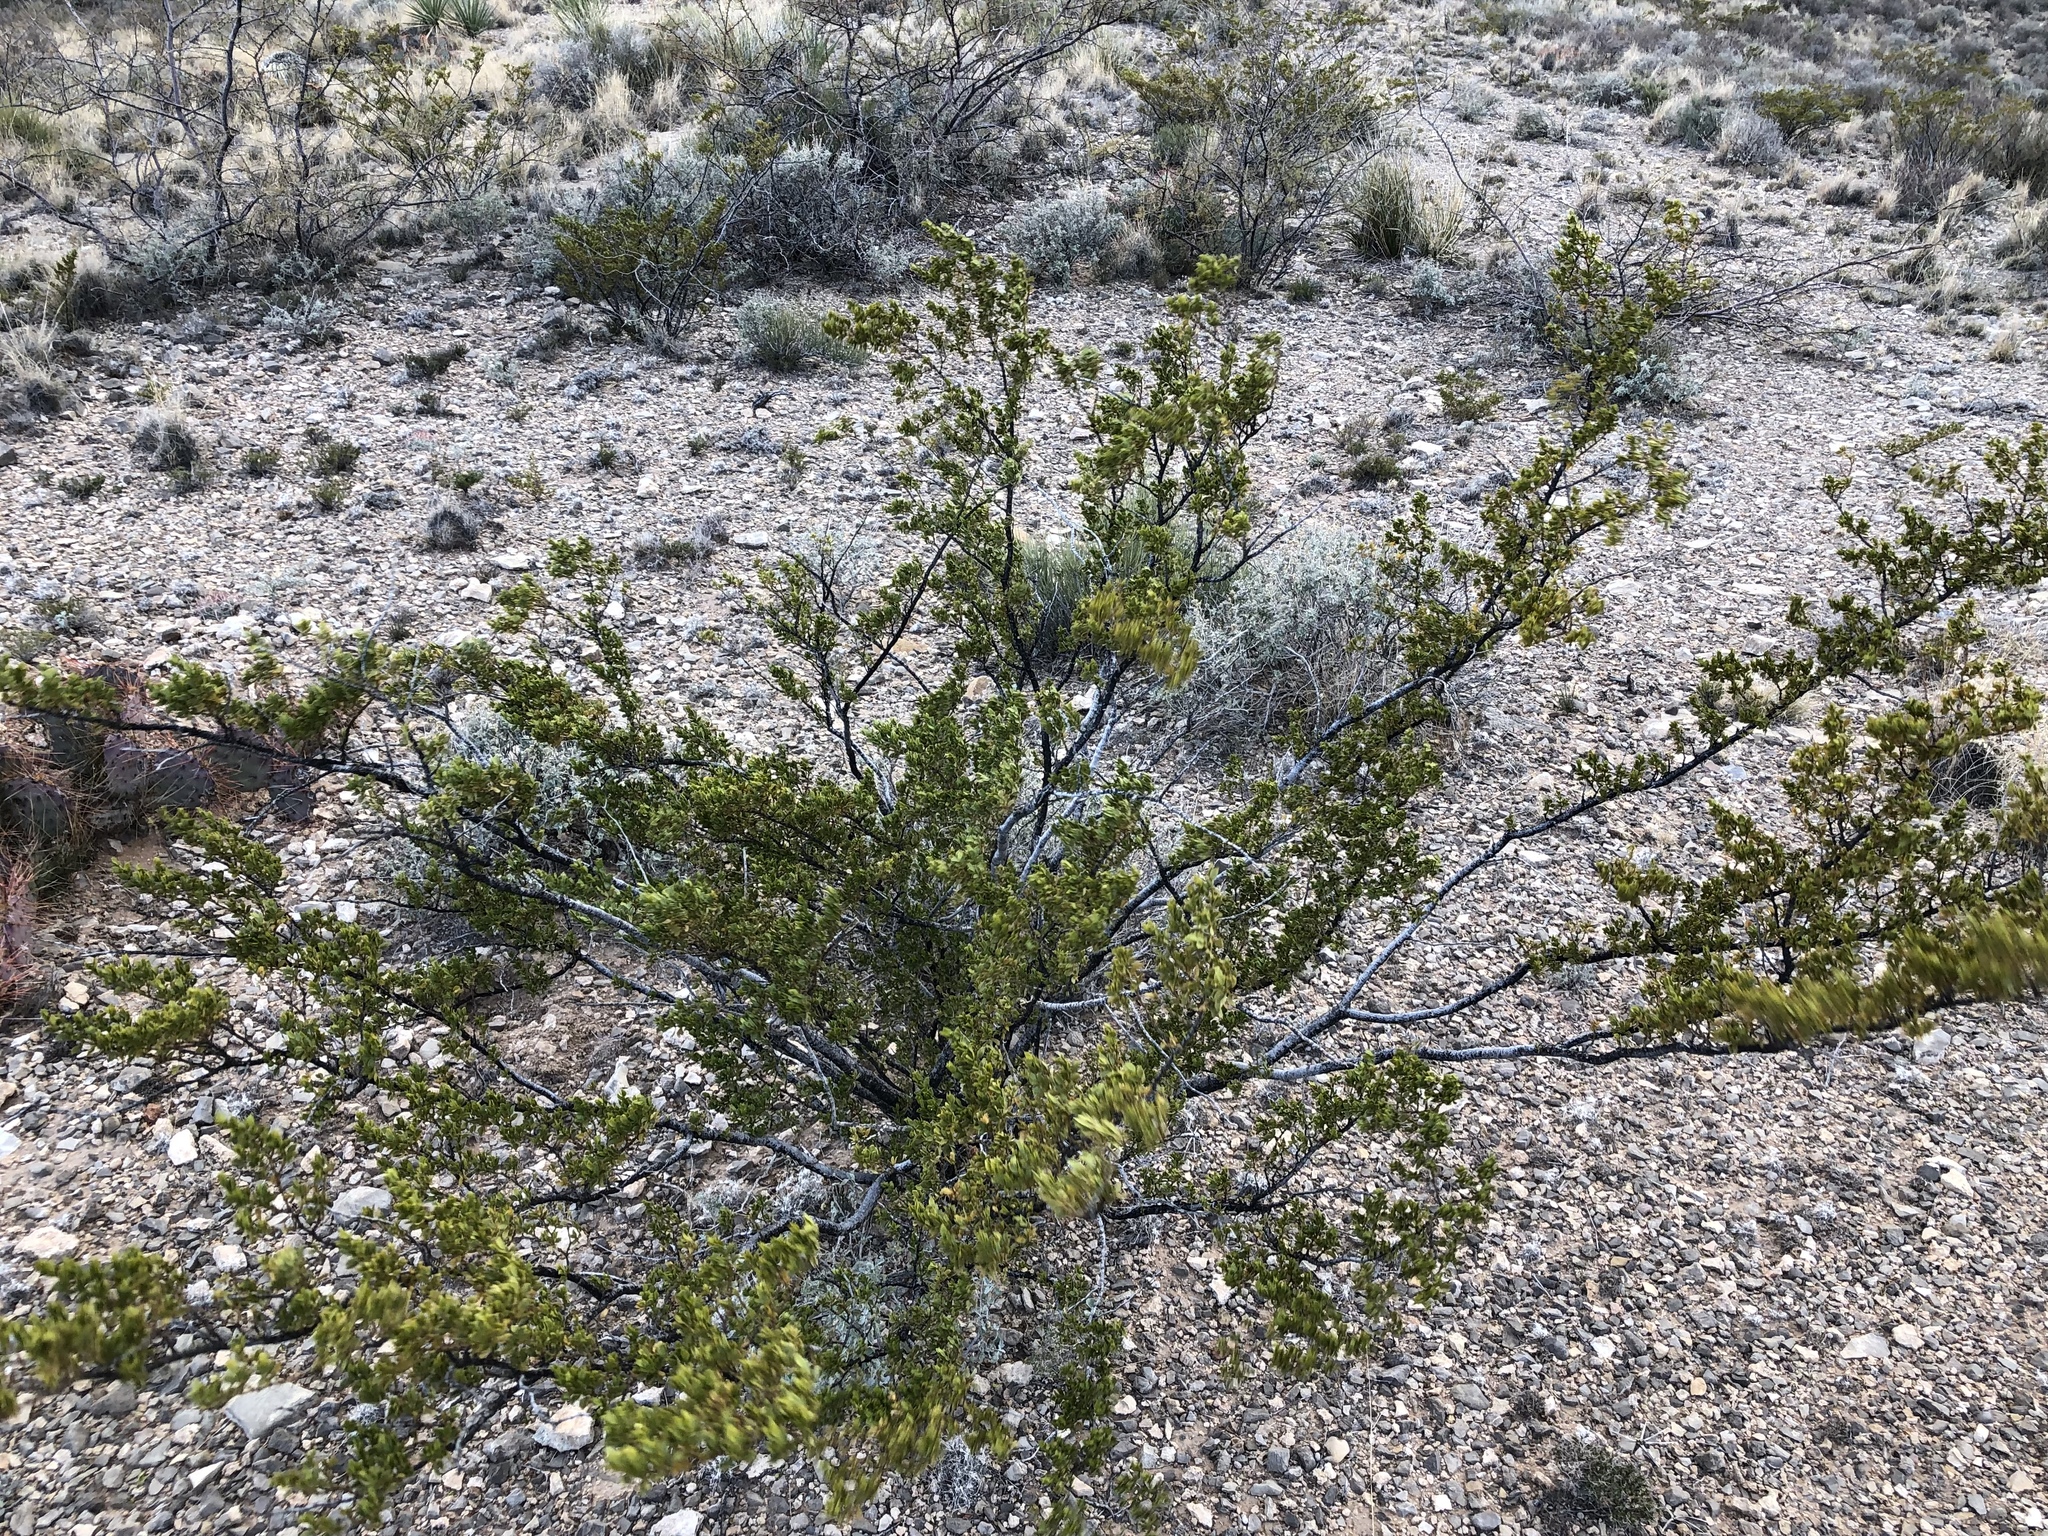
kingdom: Plantae
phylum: Tracheophyta
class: Magnoliopsida
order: Zygophyllales
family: Zygophyllaceae
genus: Larrea
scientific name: Larrea tridentata
